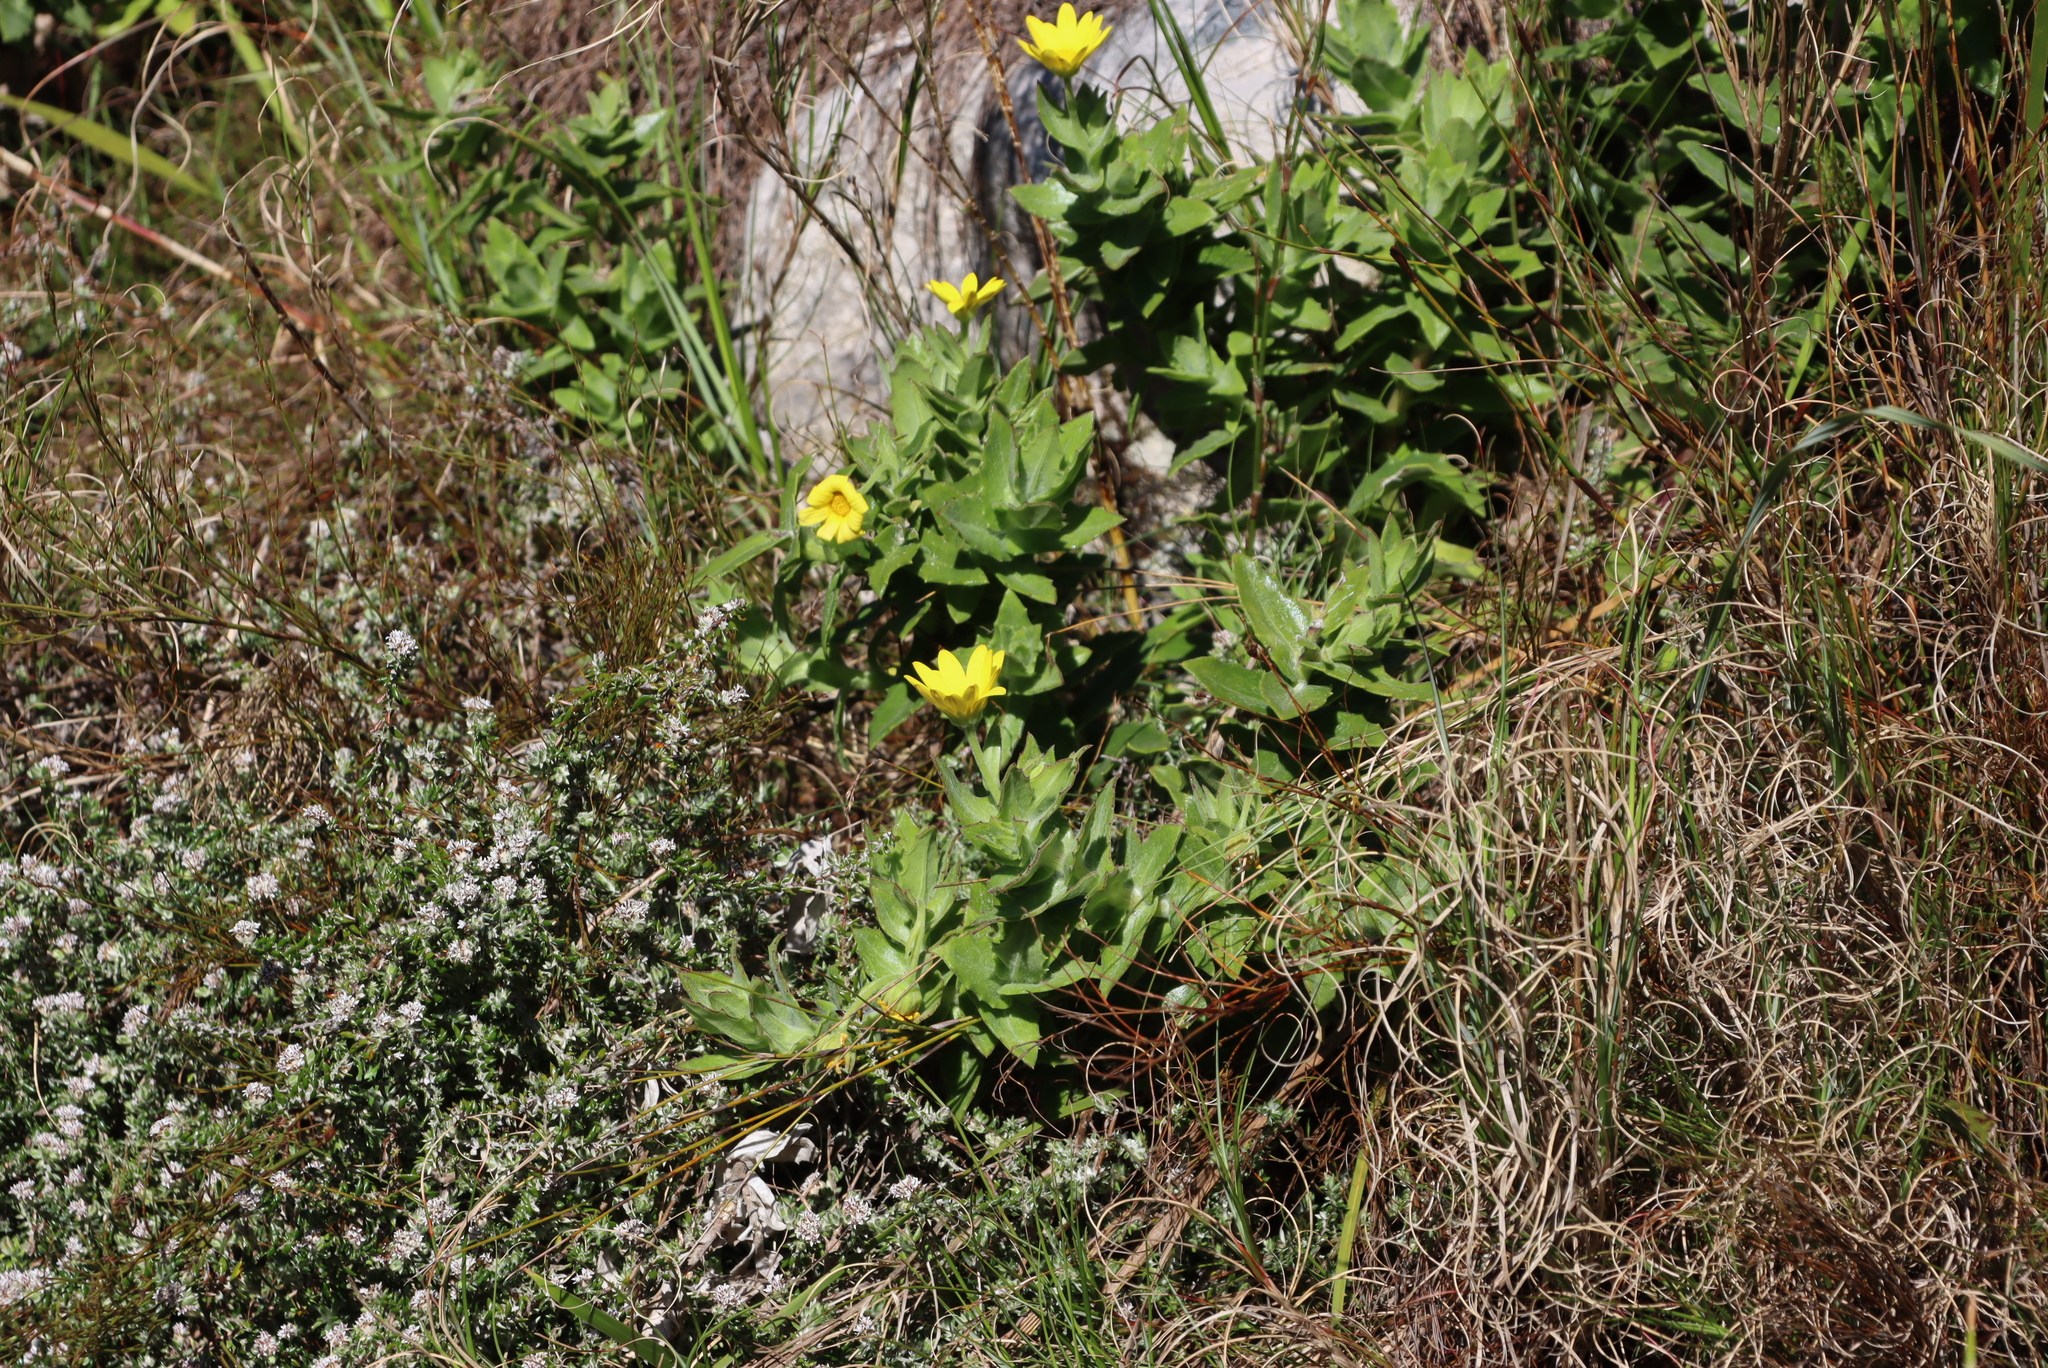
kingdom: Plantae
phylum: Tracheophyta
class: Magnoliopsida
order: Asterales
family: Asteraceae
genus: Osteospermum
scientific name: Osteospermum ilicifolium
